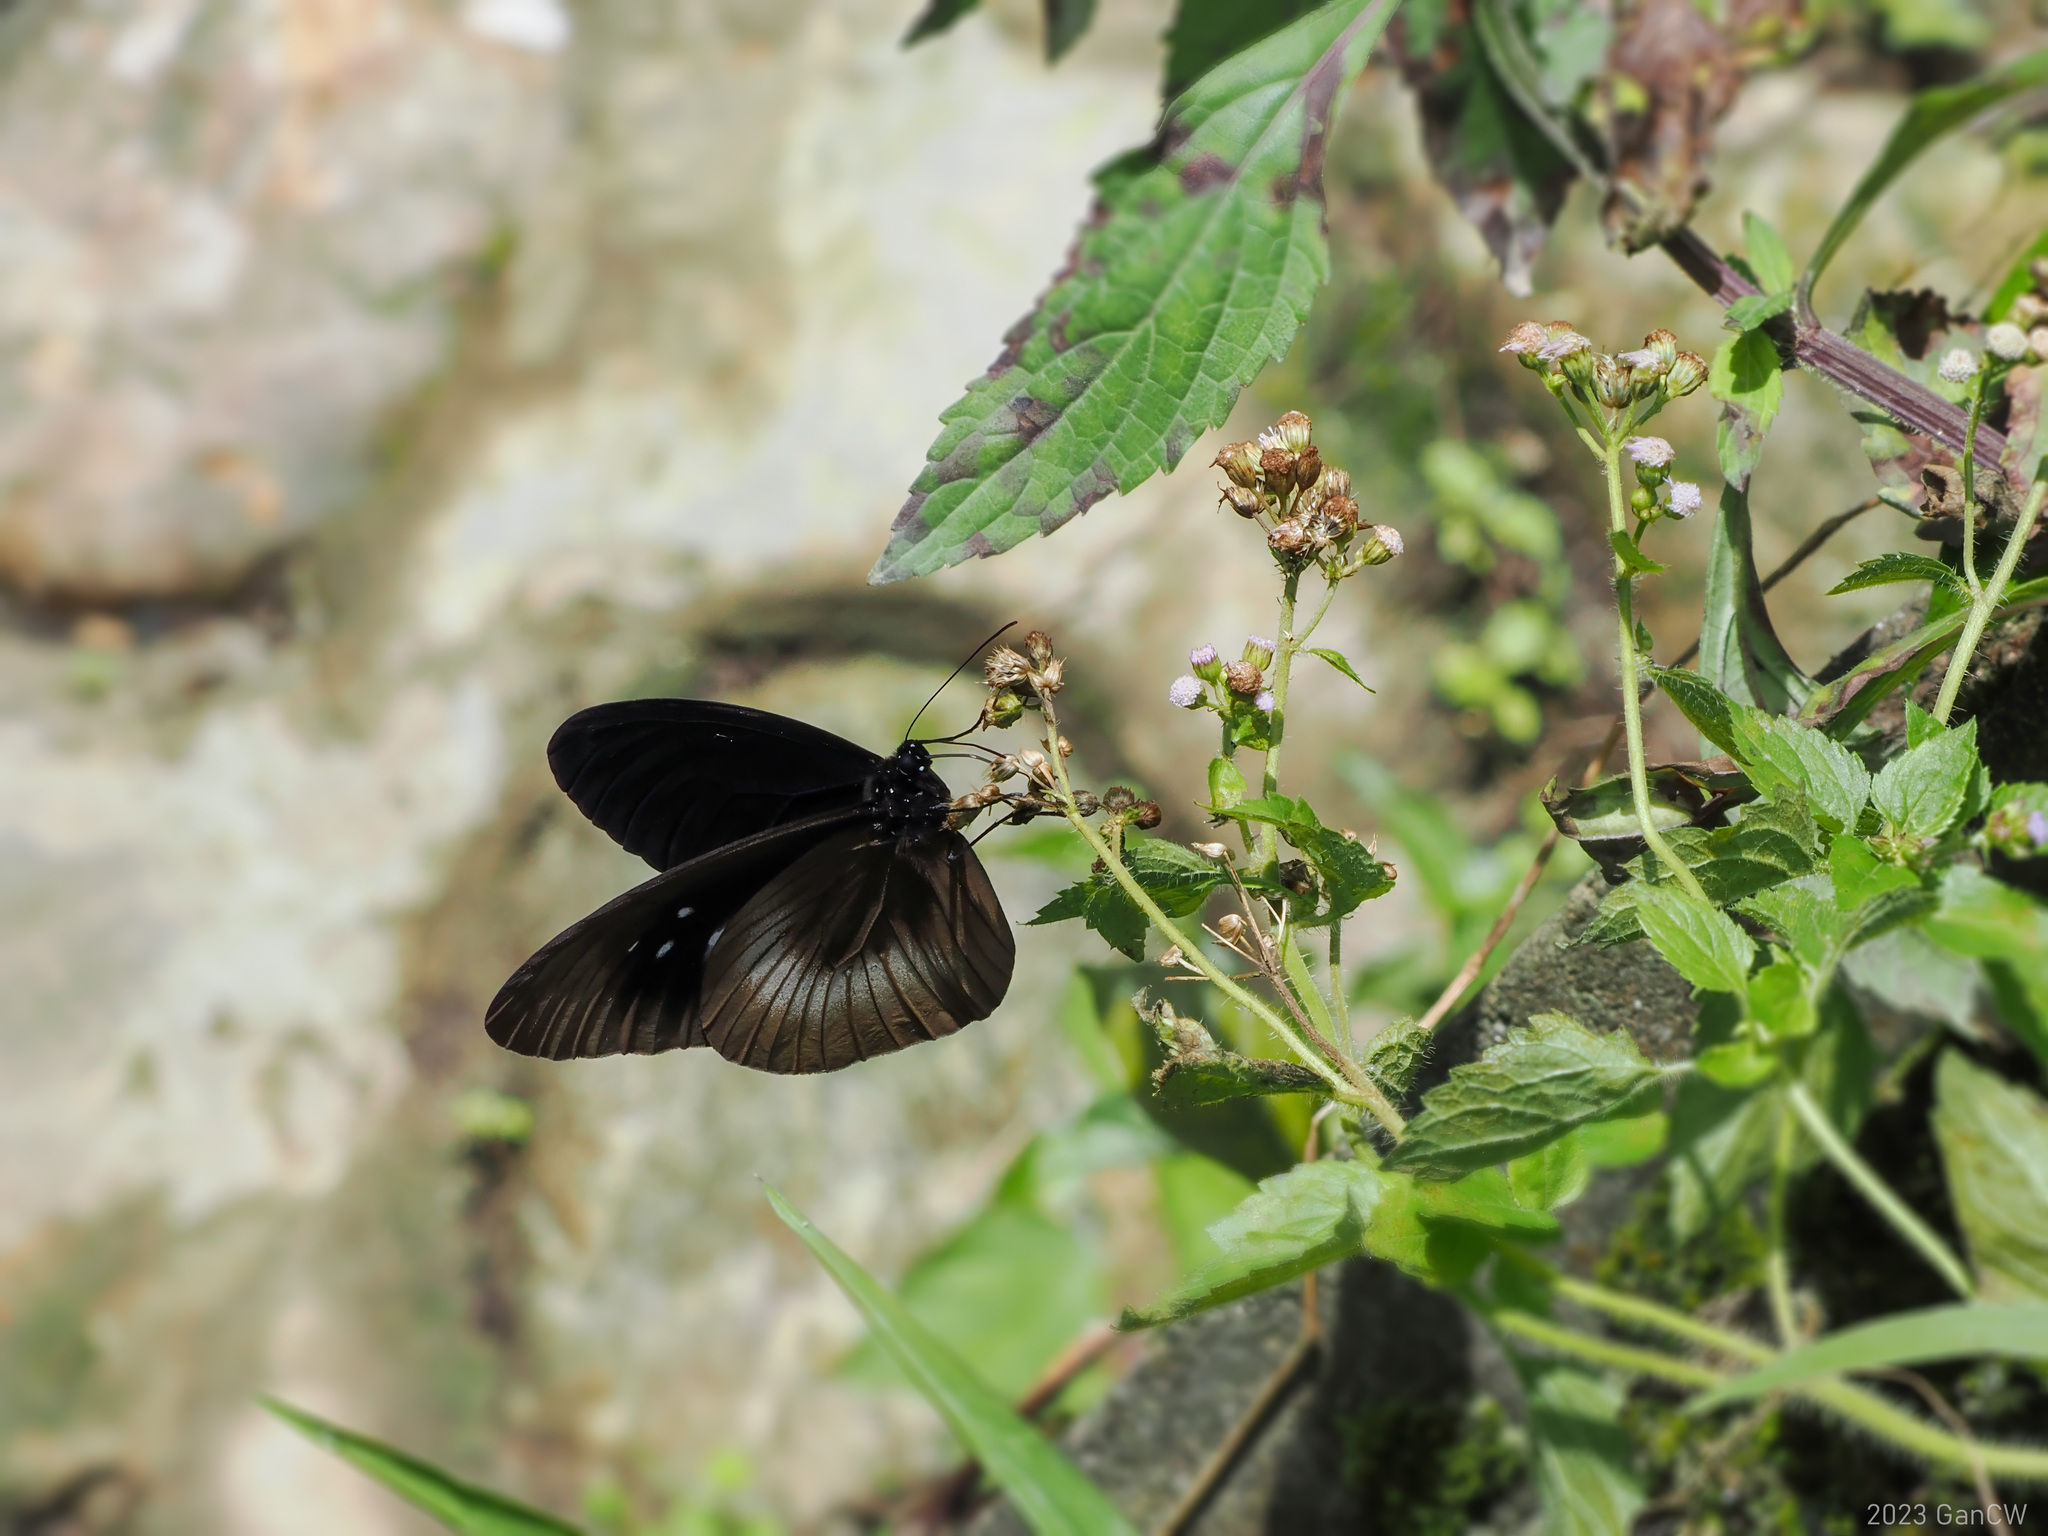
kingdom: Animalia
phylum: Arthropoda
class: Insecta
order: Lepidoptera
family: Nymphalidae
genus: Euploea
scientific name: Euploea magou
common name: Magou
